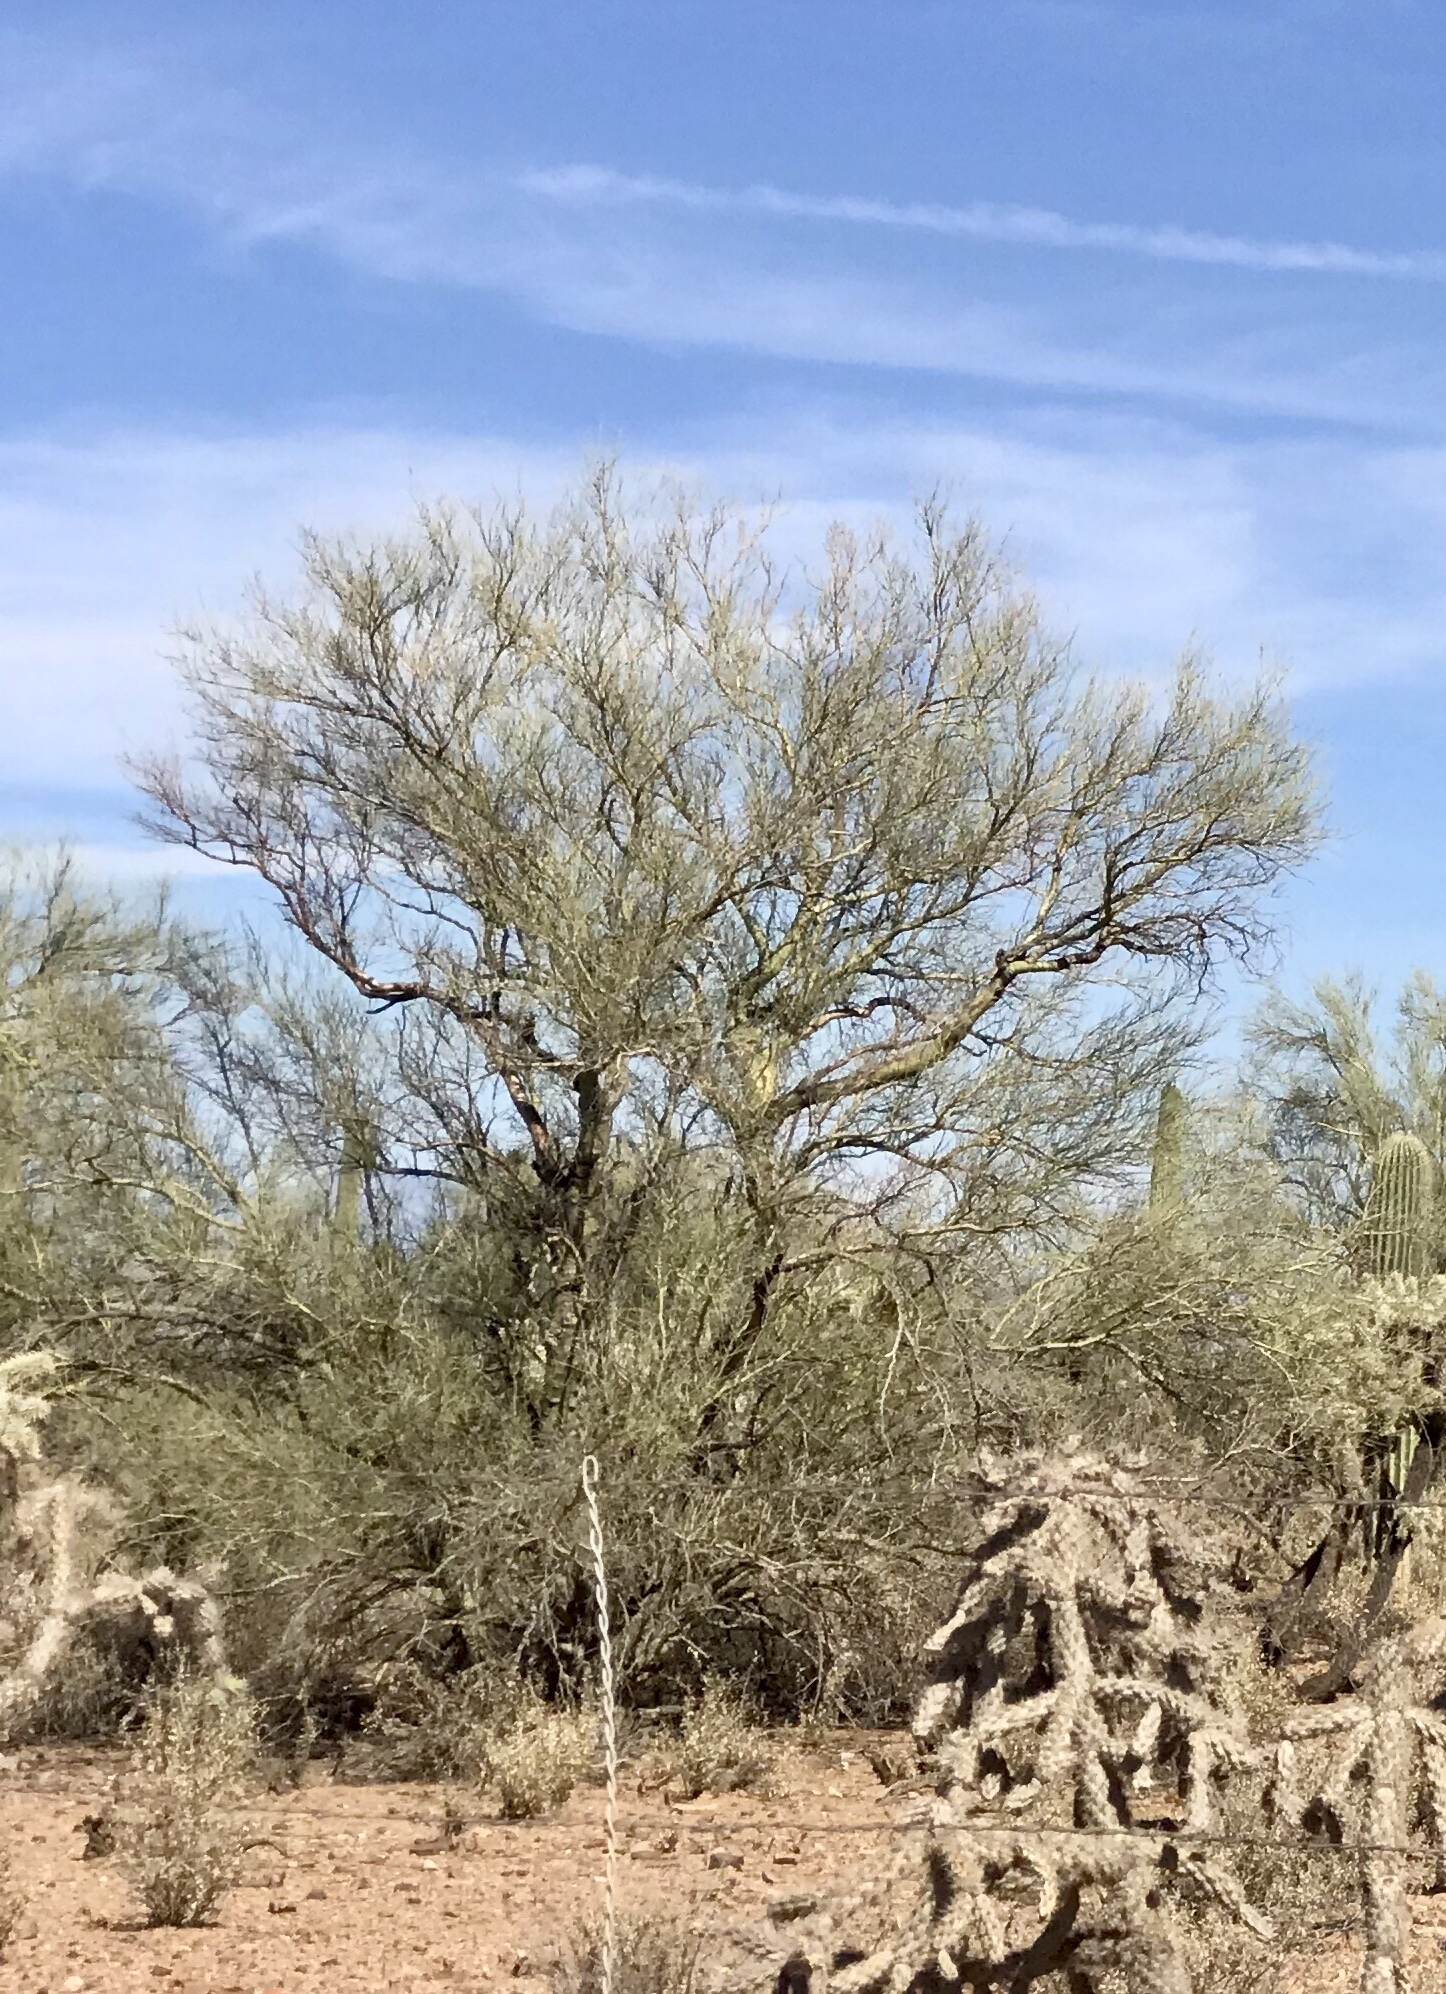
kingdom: Plantae
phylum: Tracheophyta
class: Magnoliopsida
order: Fabales
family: Fabaceae
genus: Parkinsonia
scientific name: Parkinsonia microphylla
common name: Yellow paloverde
